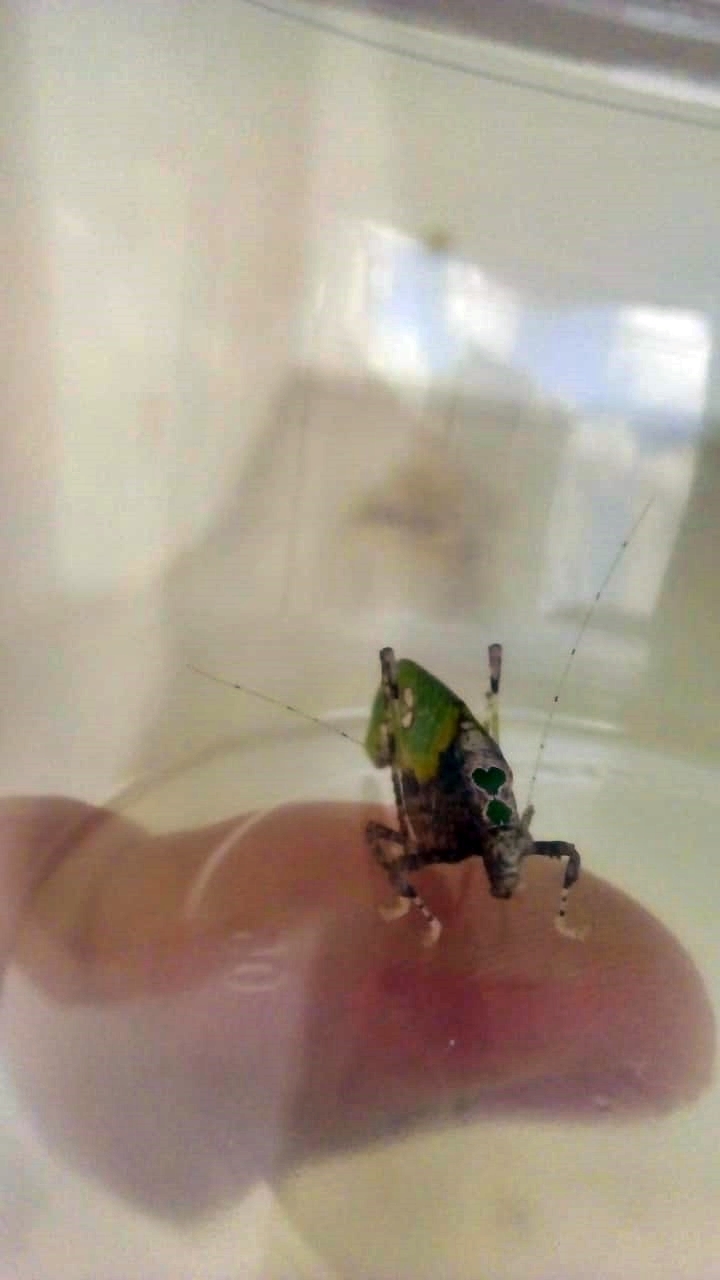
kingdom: Animalia
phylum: Arthropoda
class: Insecta
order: Orthoptera
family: Tettigoniidae
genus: Pycnopalpa
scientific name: Pycnopalpa bicordata
